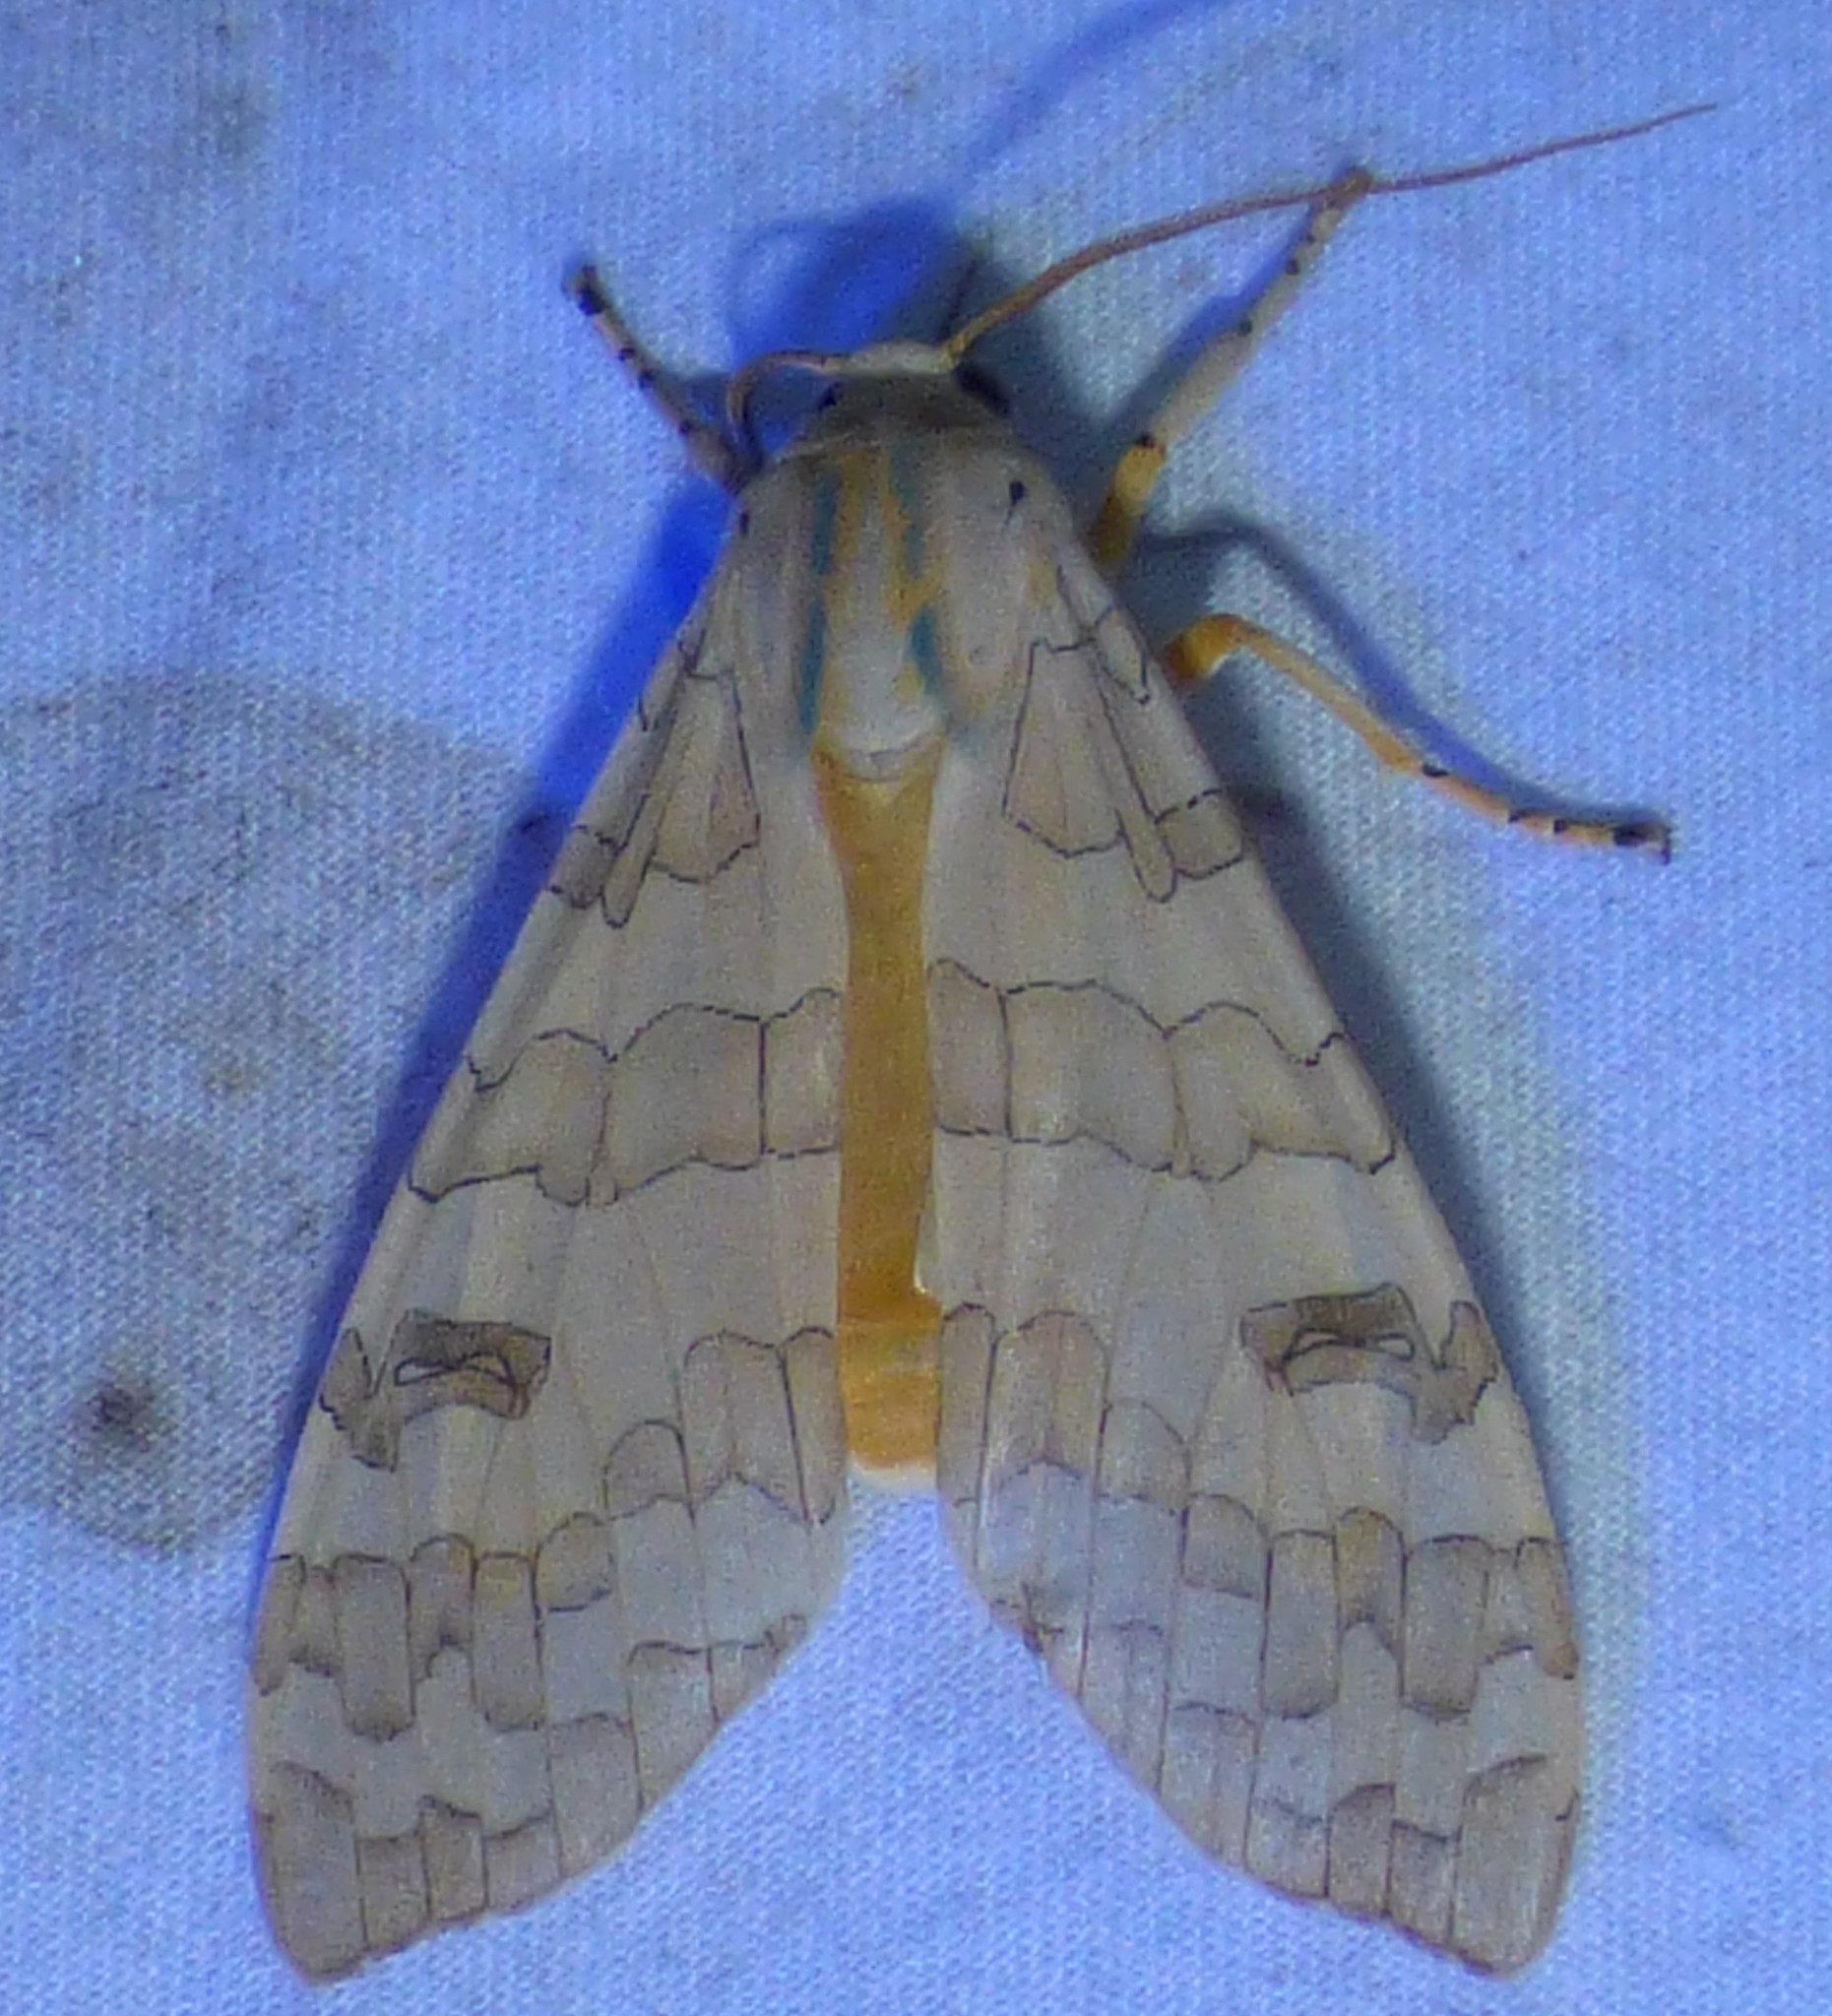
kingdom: Animalia
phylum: Arthropoda
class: Insecta
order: Lepidoptera
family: Erebidae
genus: Halysidota
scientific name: Halysidota
